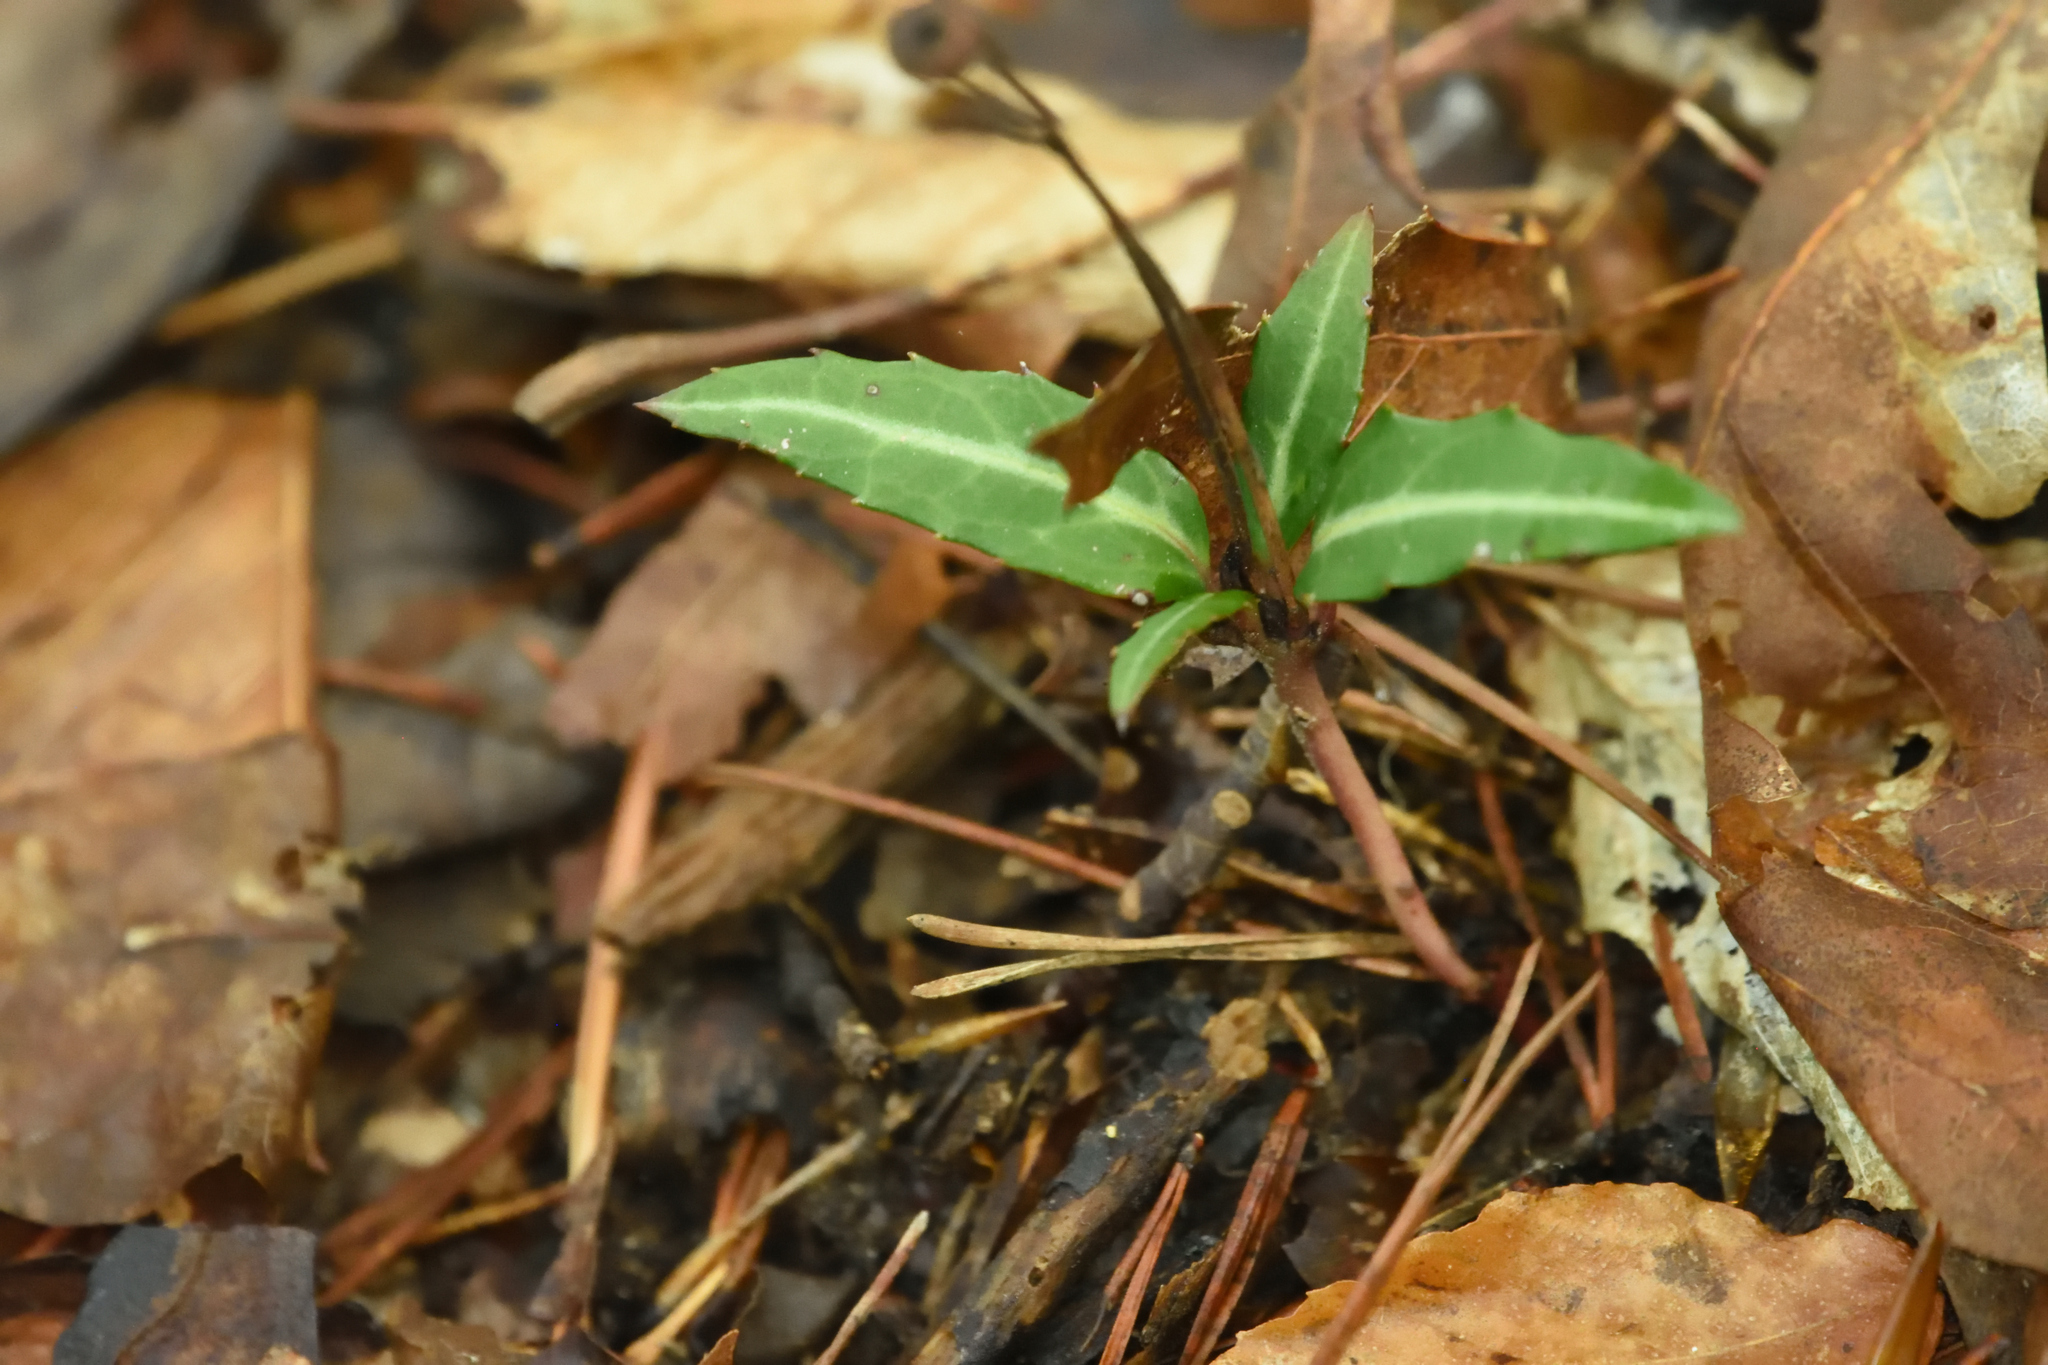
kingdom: Plantae
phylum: Tracheophyta
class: Magnoliopsida
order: Ericales
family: Ericaceae
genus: Chimaphila
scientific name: Chimaphila maculata
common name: Spotted pipsissewa
